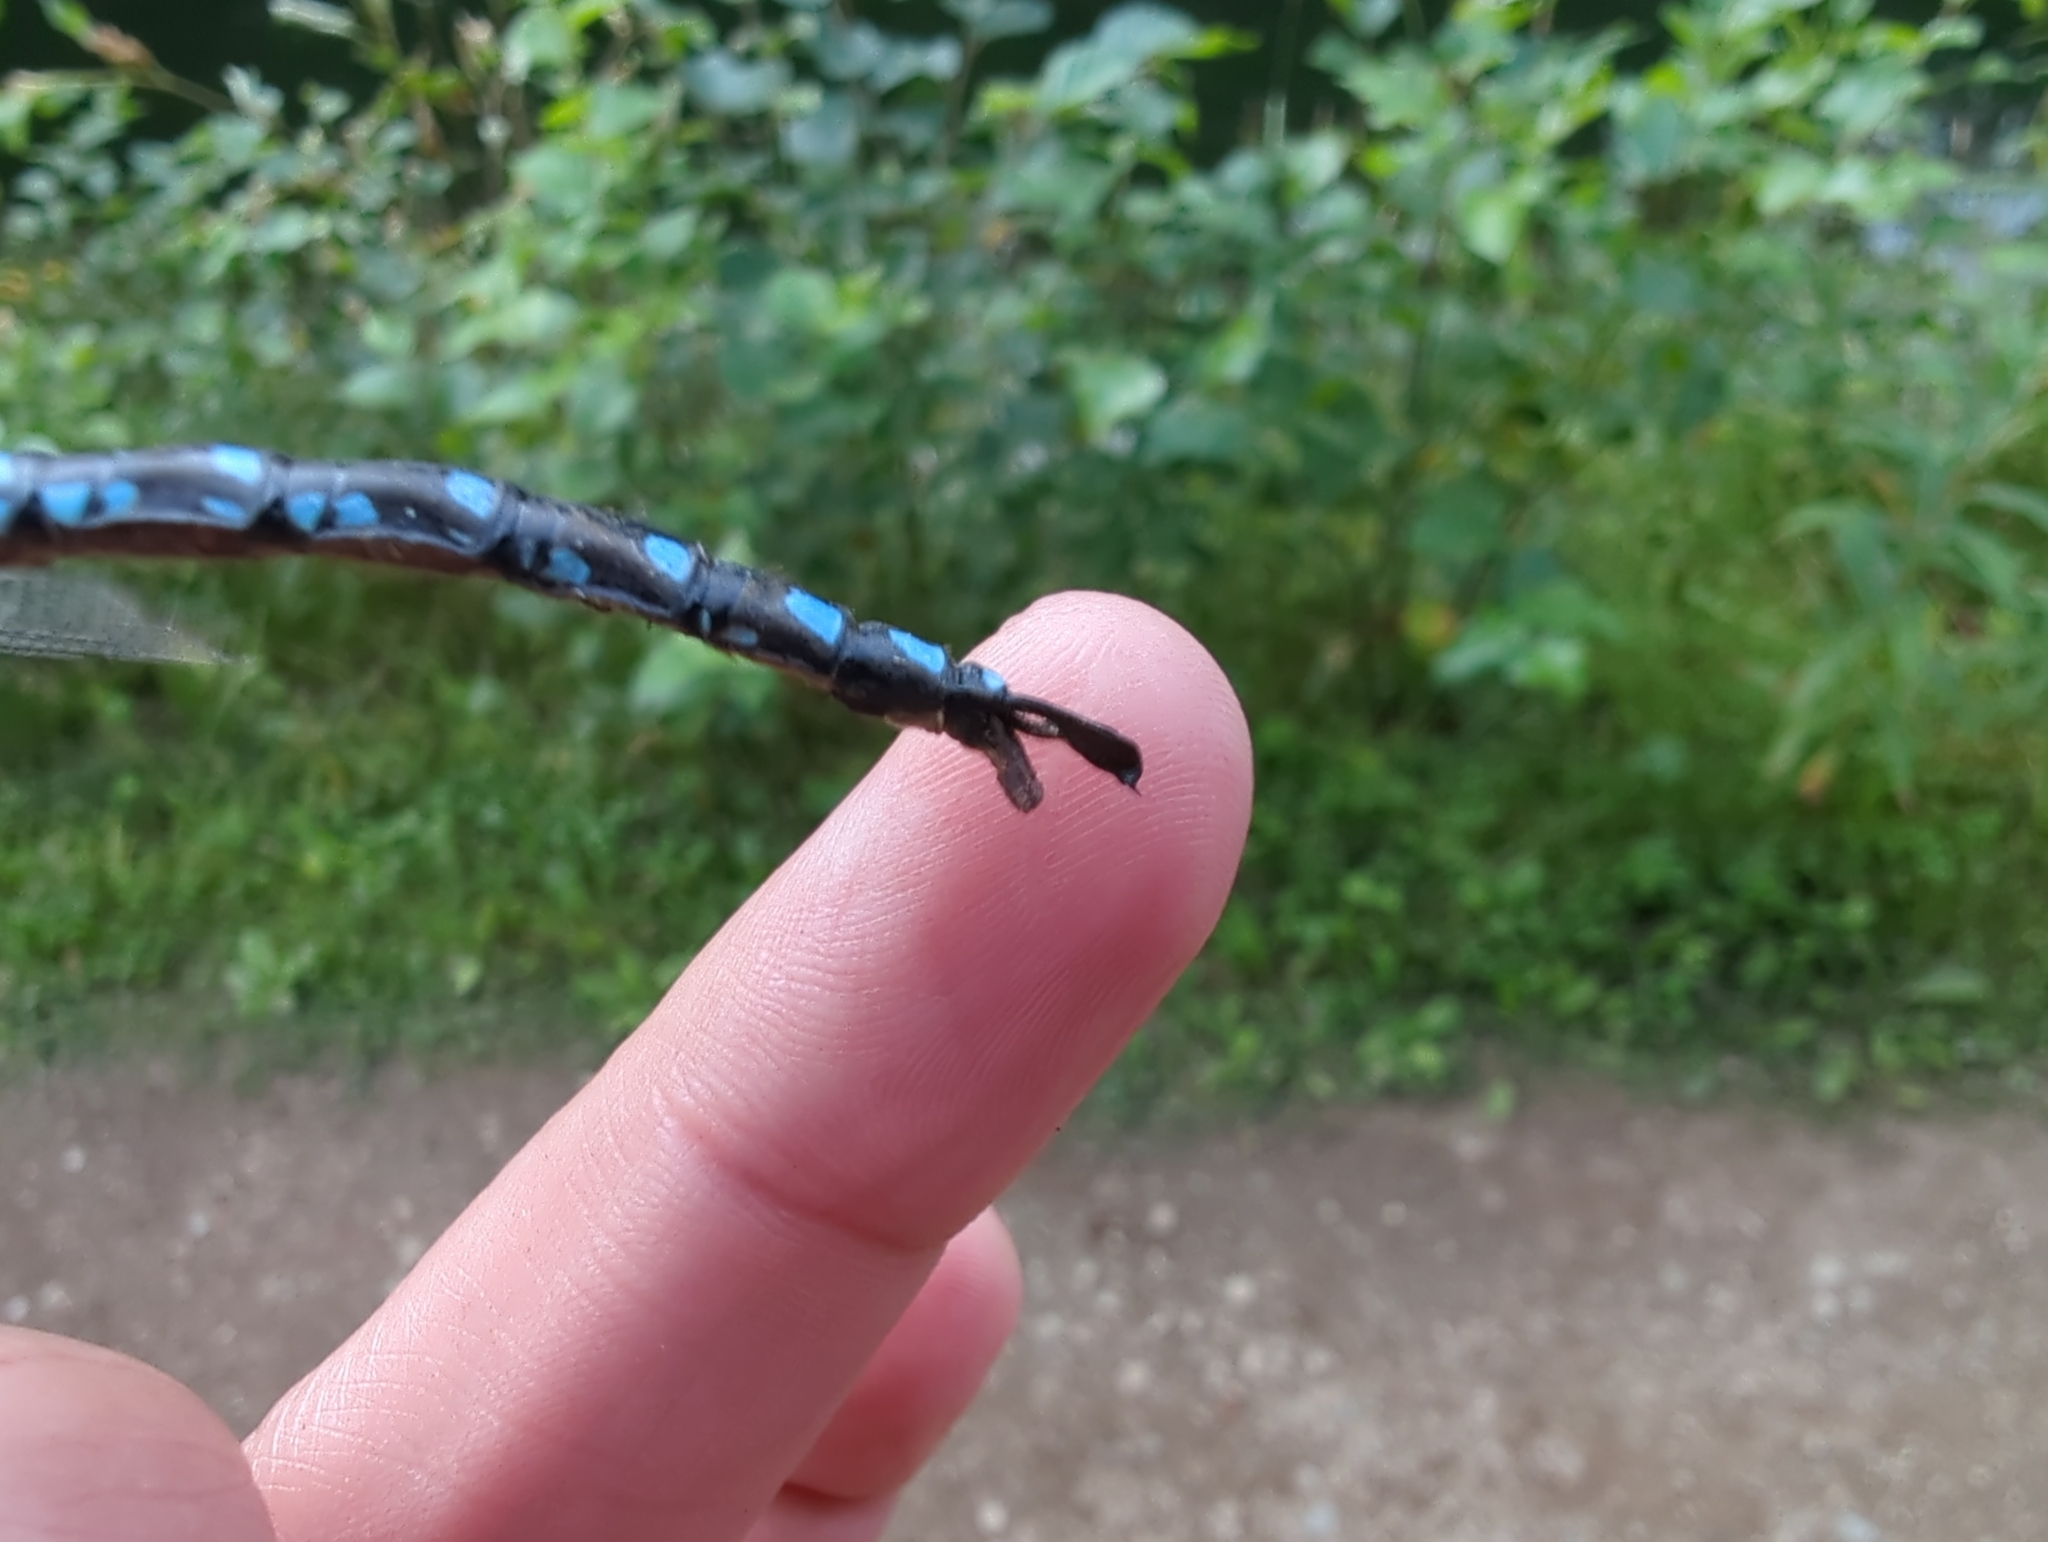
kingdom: Animalia
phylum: Arthropoda
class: Insecta
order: Odonata
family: Aeshnidae
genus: Aeshna
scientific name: Aeshna palmata
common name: Paddle-tailed darner
